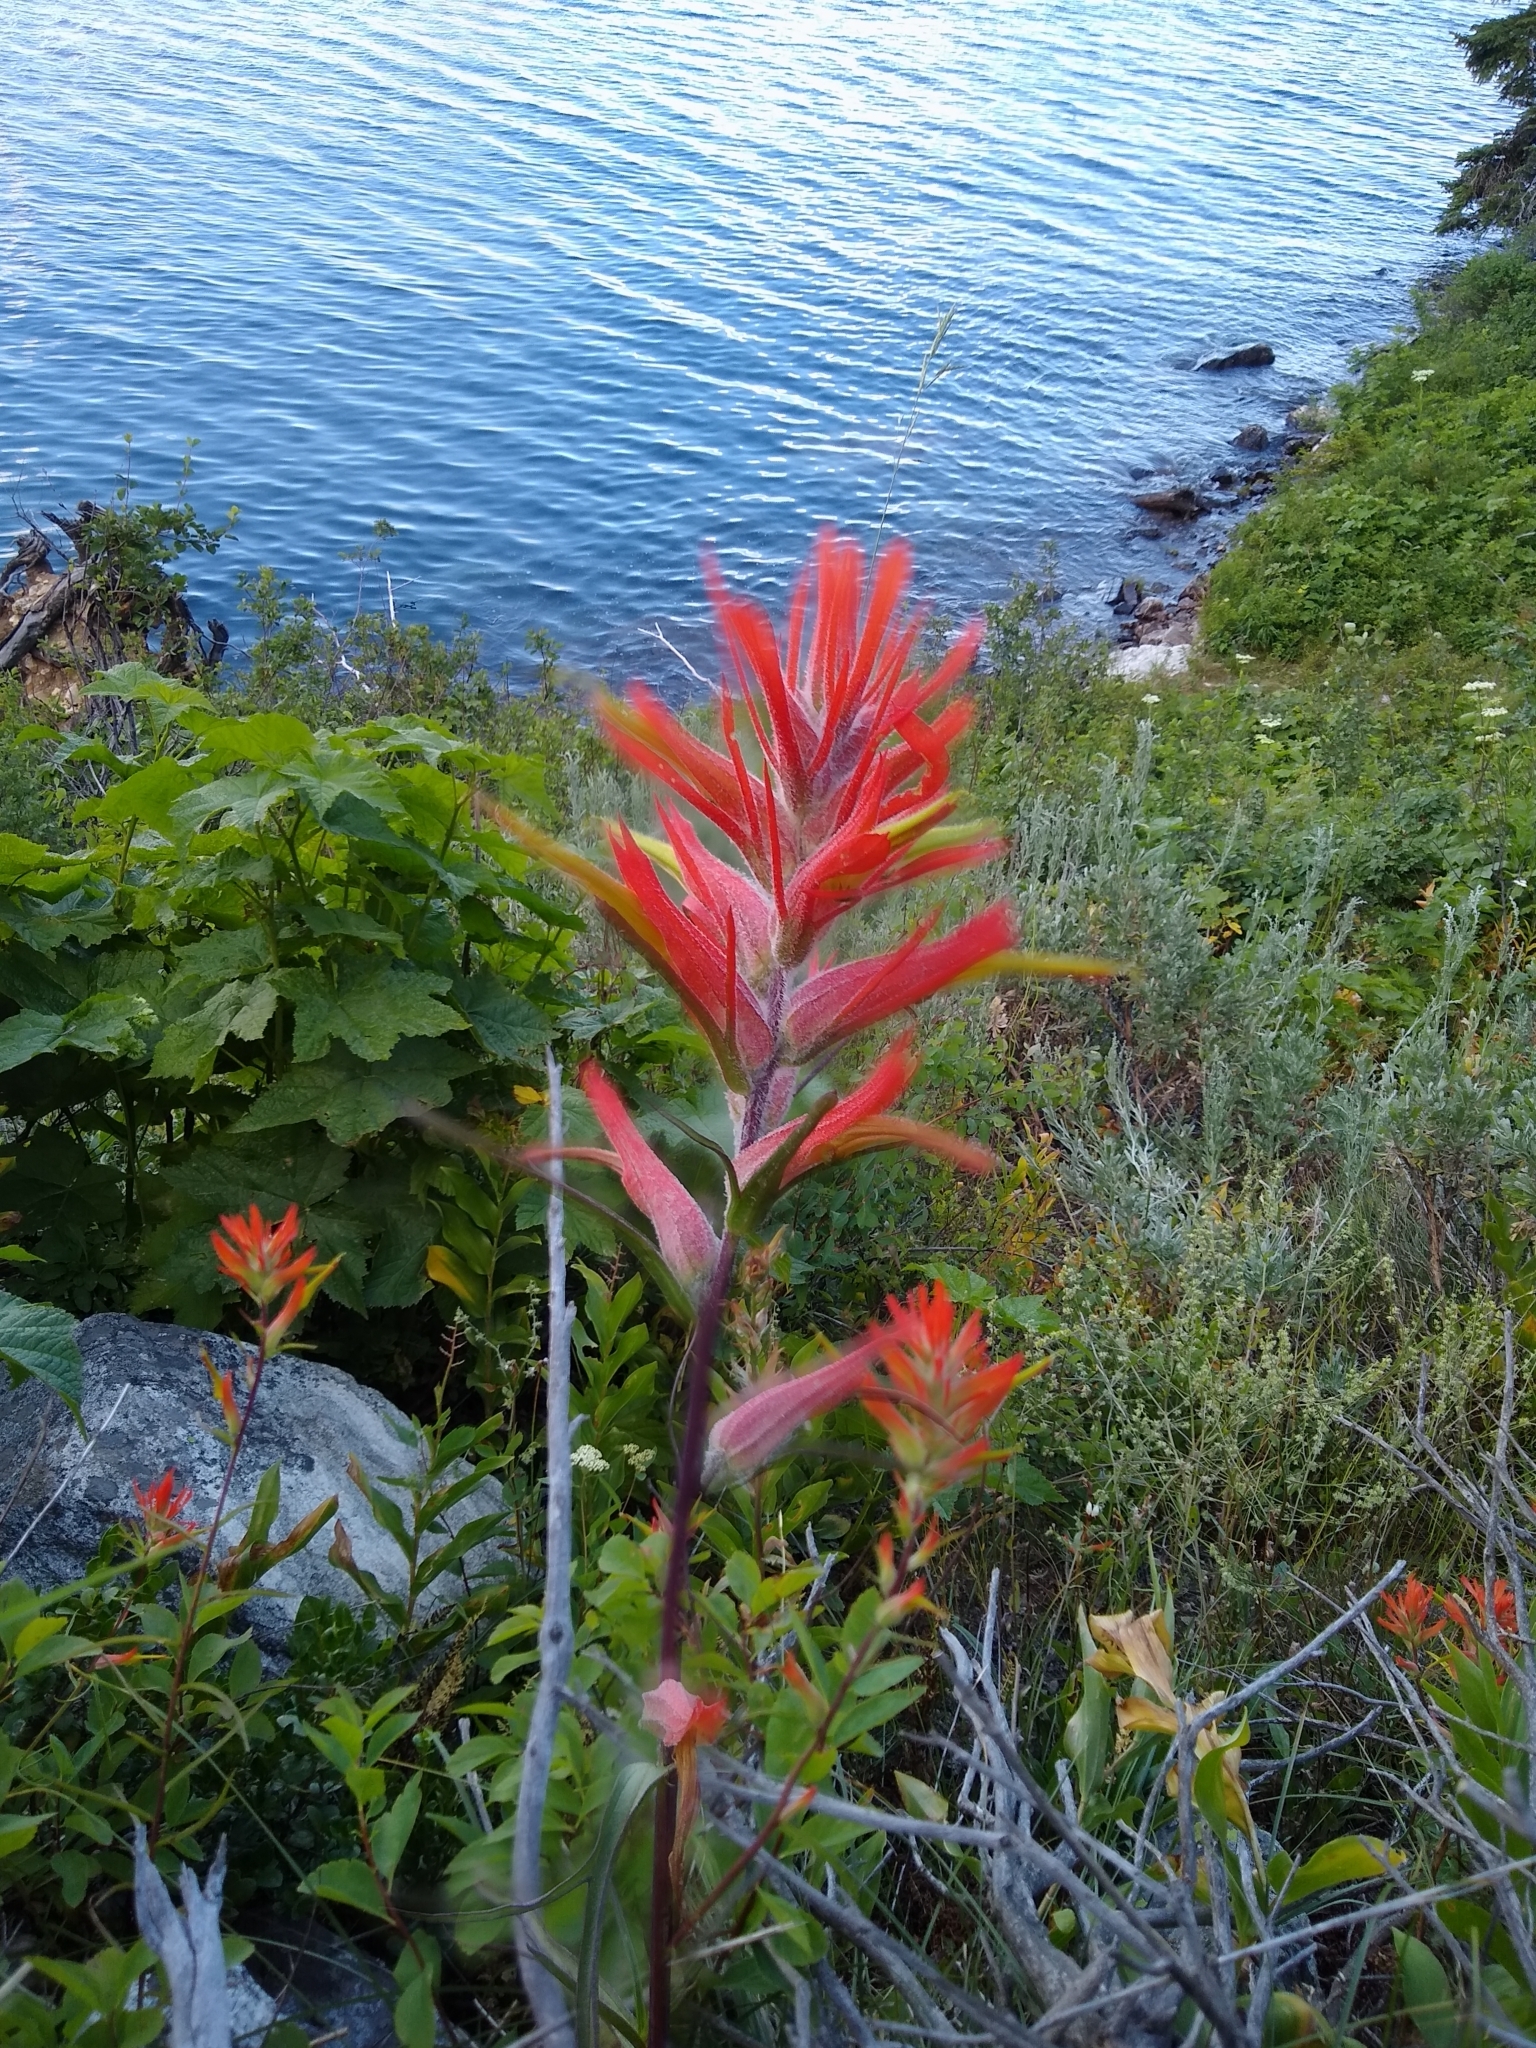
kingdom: Plantae
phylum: Tracheophyta
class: Magnoliopsida
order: Lamiales
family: Orobanchaceae
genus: Castilleja
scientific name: Castilleja linariifolia
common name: Wyoming paintbrush
